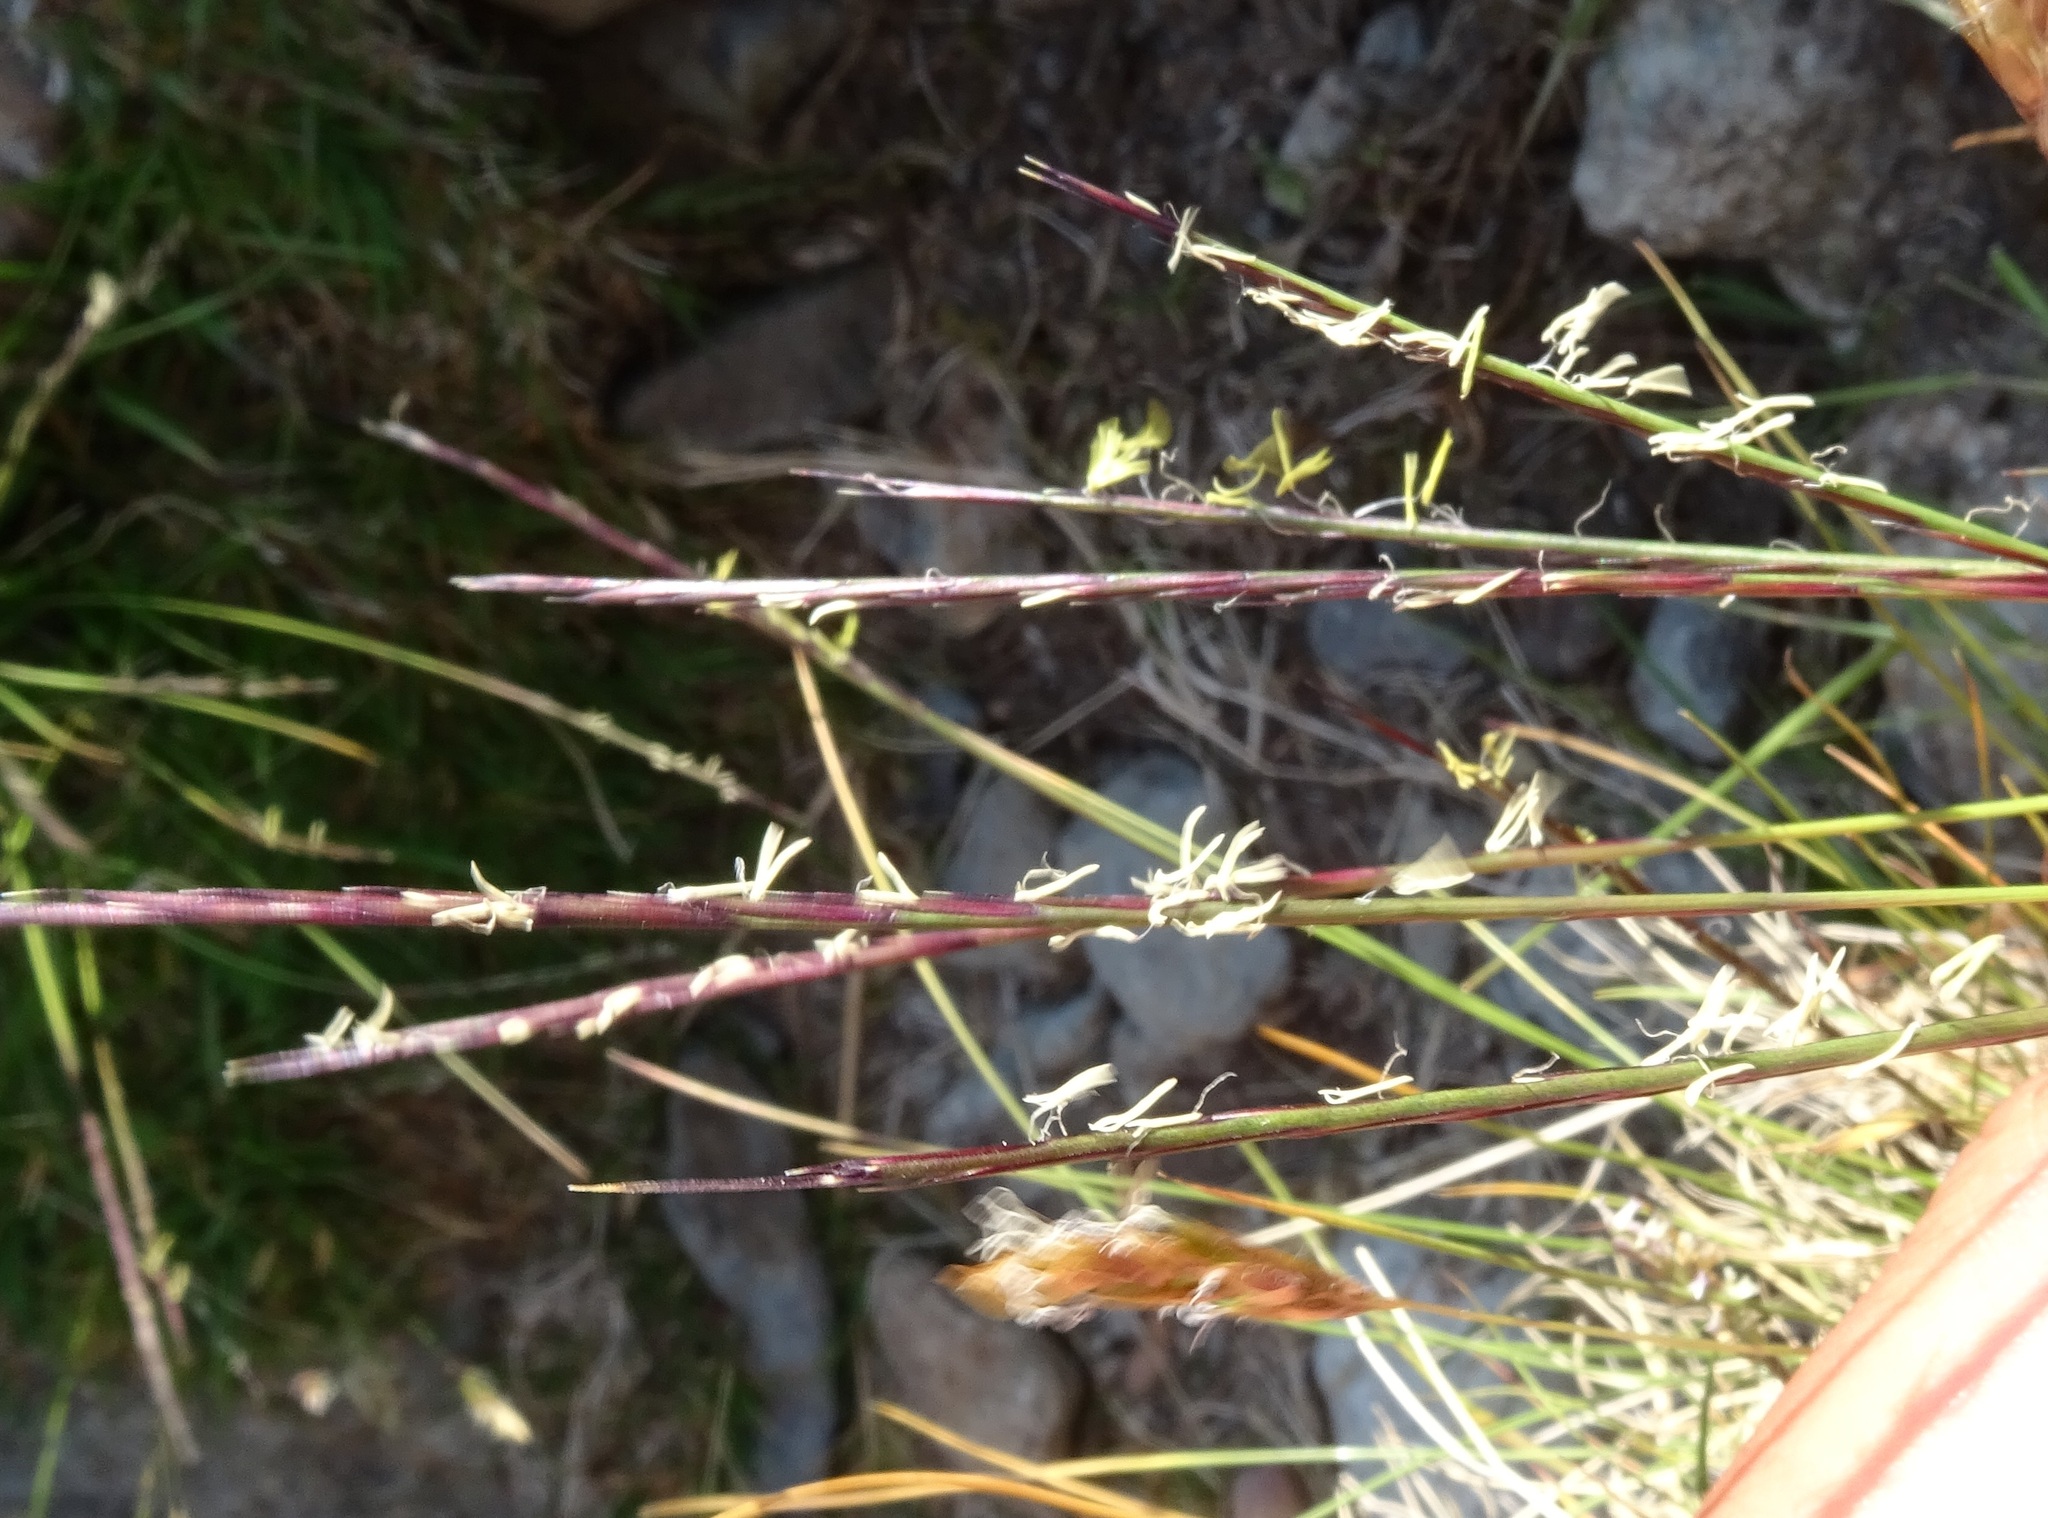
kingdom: Plantae
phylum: Tracheophyta
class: Liliopsida
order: Poales
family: Poaceae
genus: Nardus
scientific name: Nardus stricta
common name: Mat-grass
